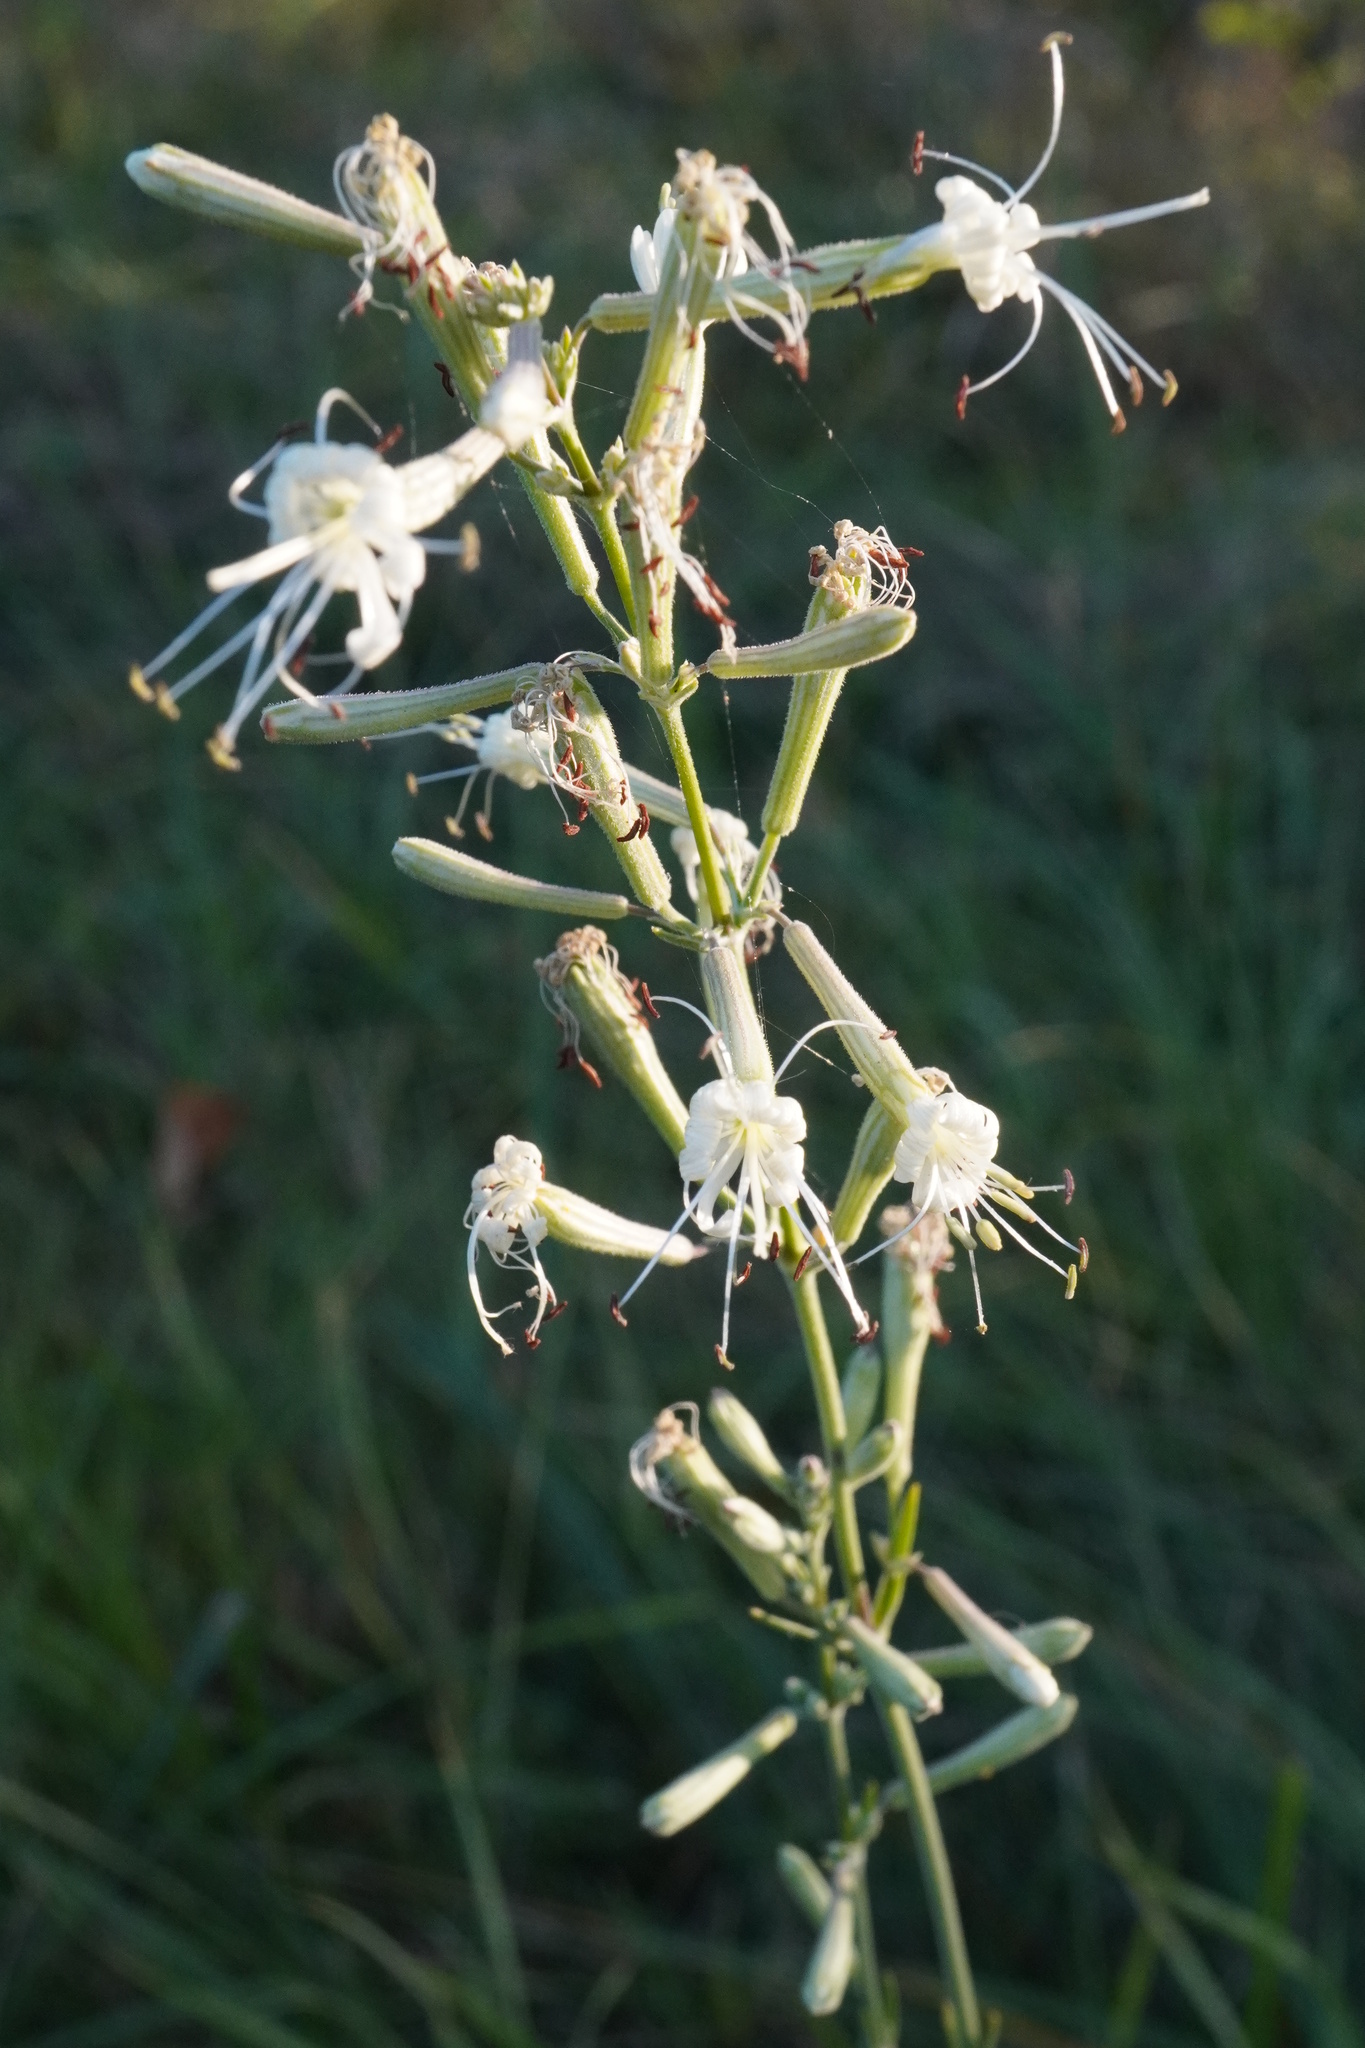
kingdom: Plantae
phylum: Tracheophyta
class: Magnoliopsida
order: Caryophyllales
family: Caryophyllaceae
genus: Silene
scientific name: Silene multiflora
